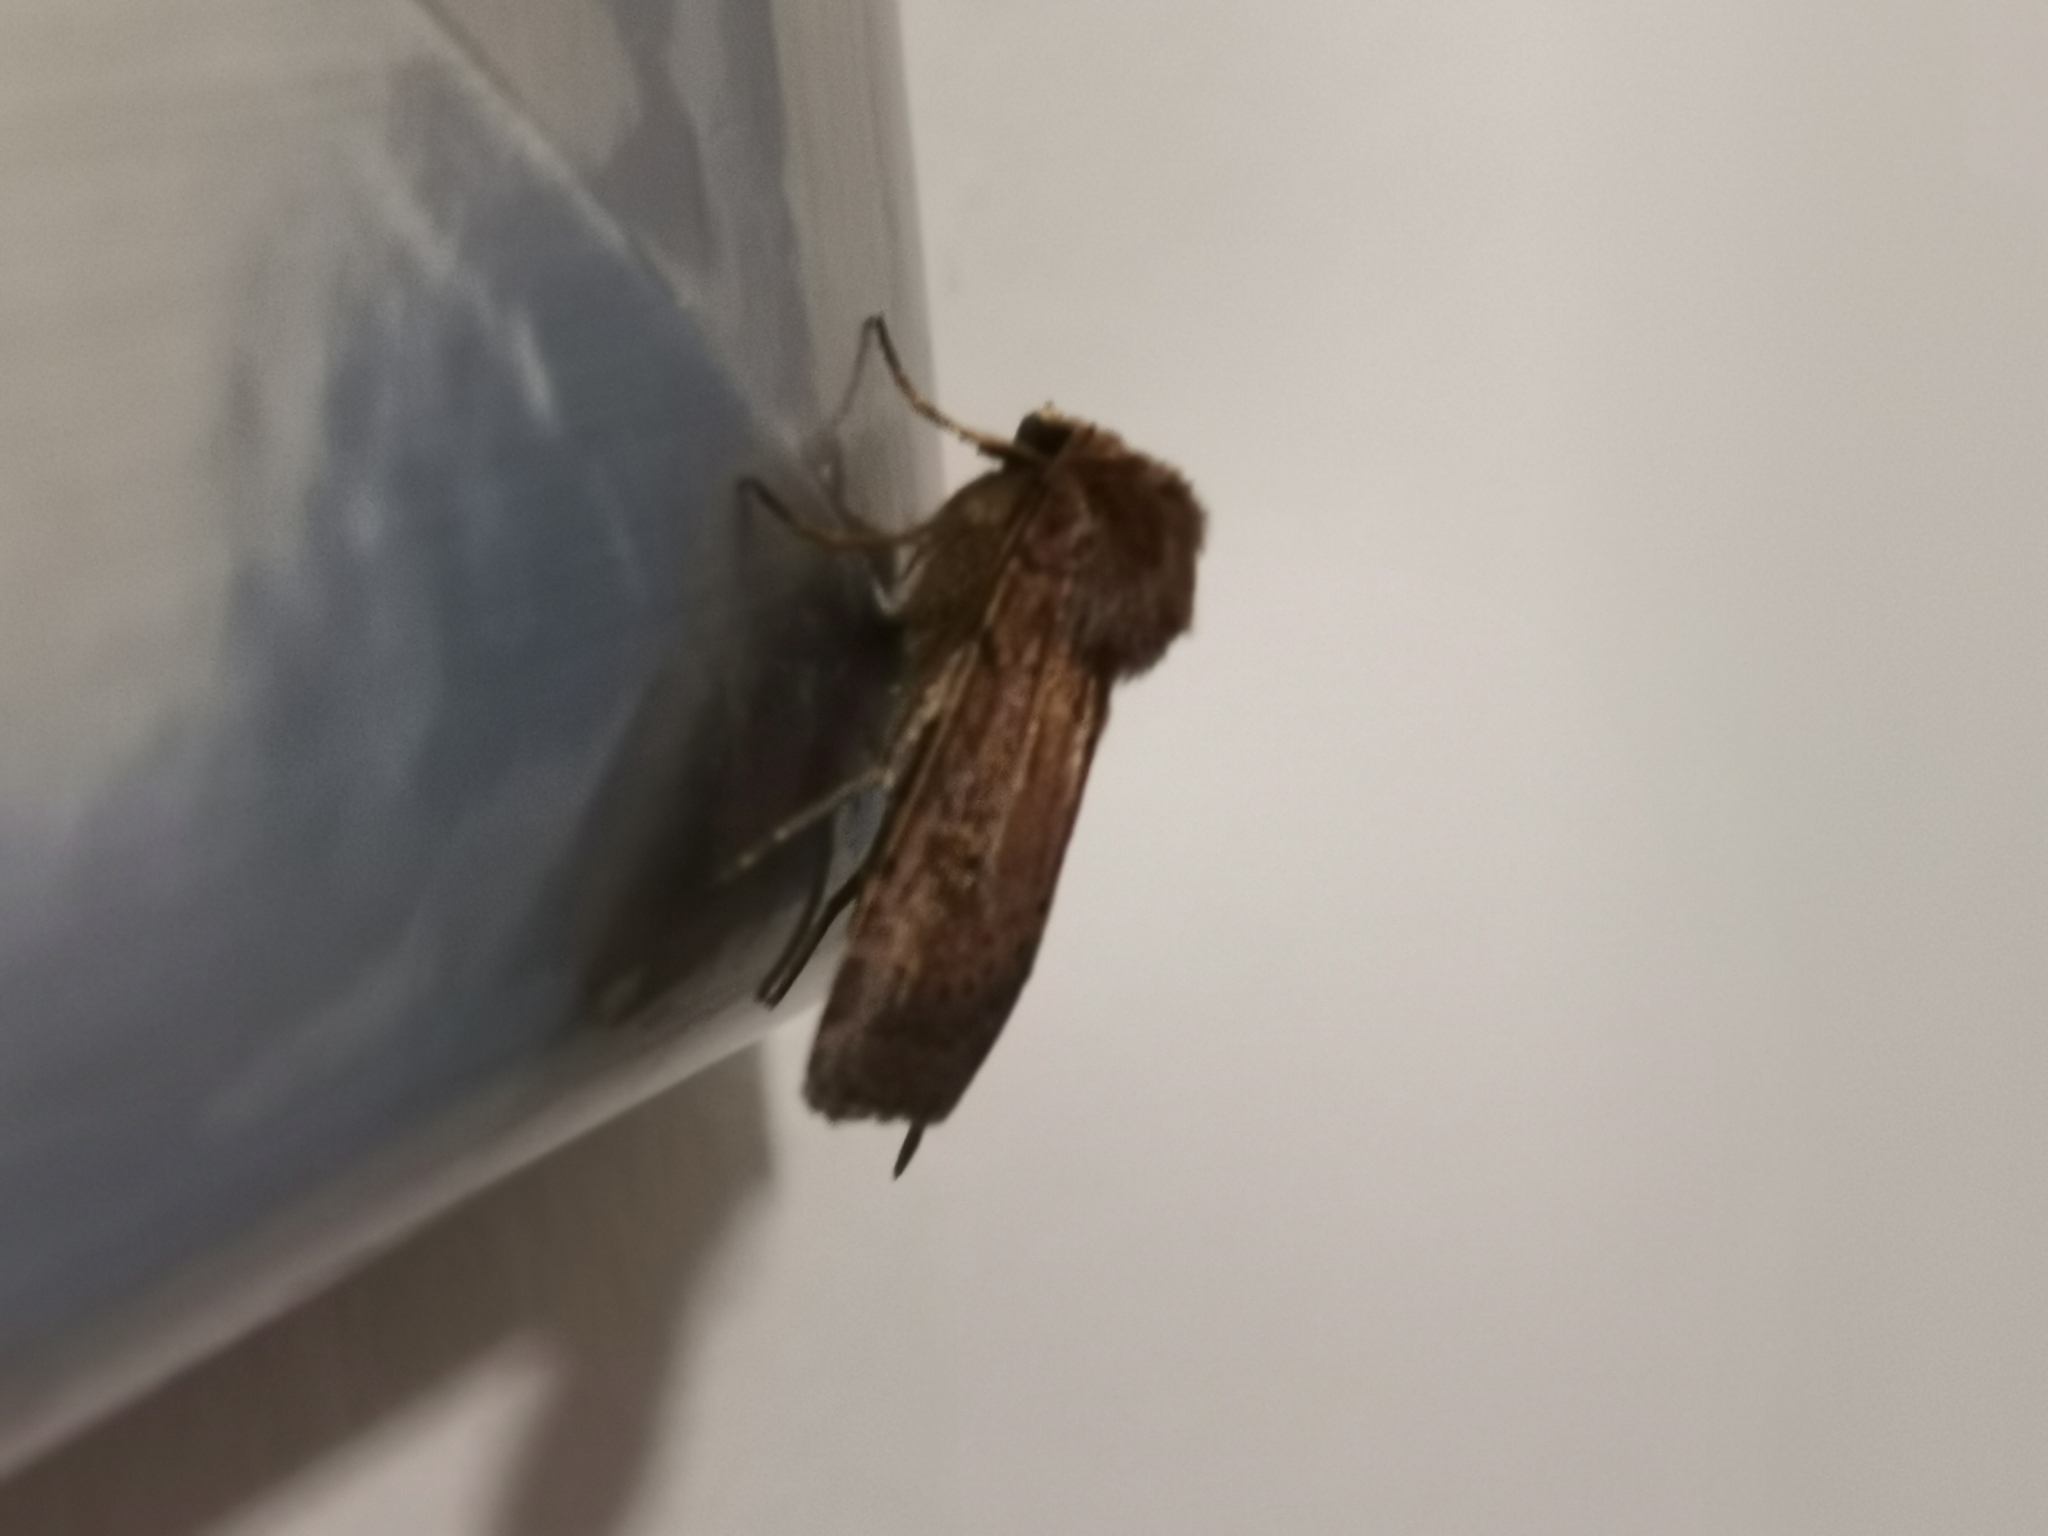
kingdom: Animalia
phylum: Arthropoda
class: Insecta
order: Lepidoptera
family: Noctuidae
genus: Xestia
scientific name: Xestia xanthographa
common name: Square-spot rustic
